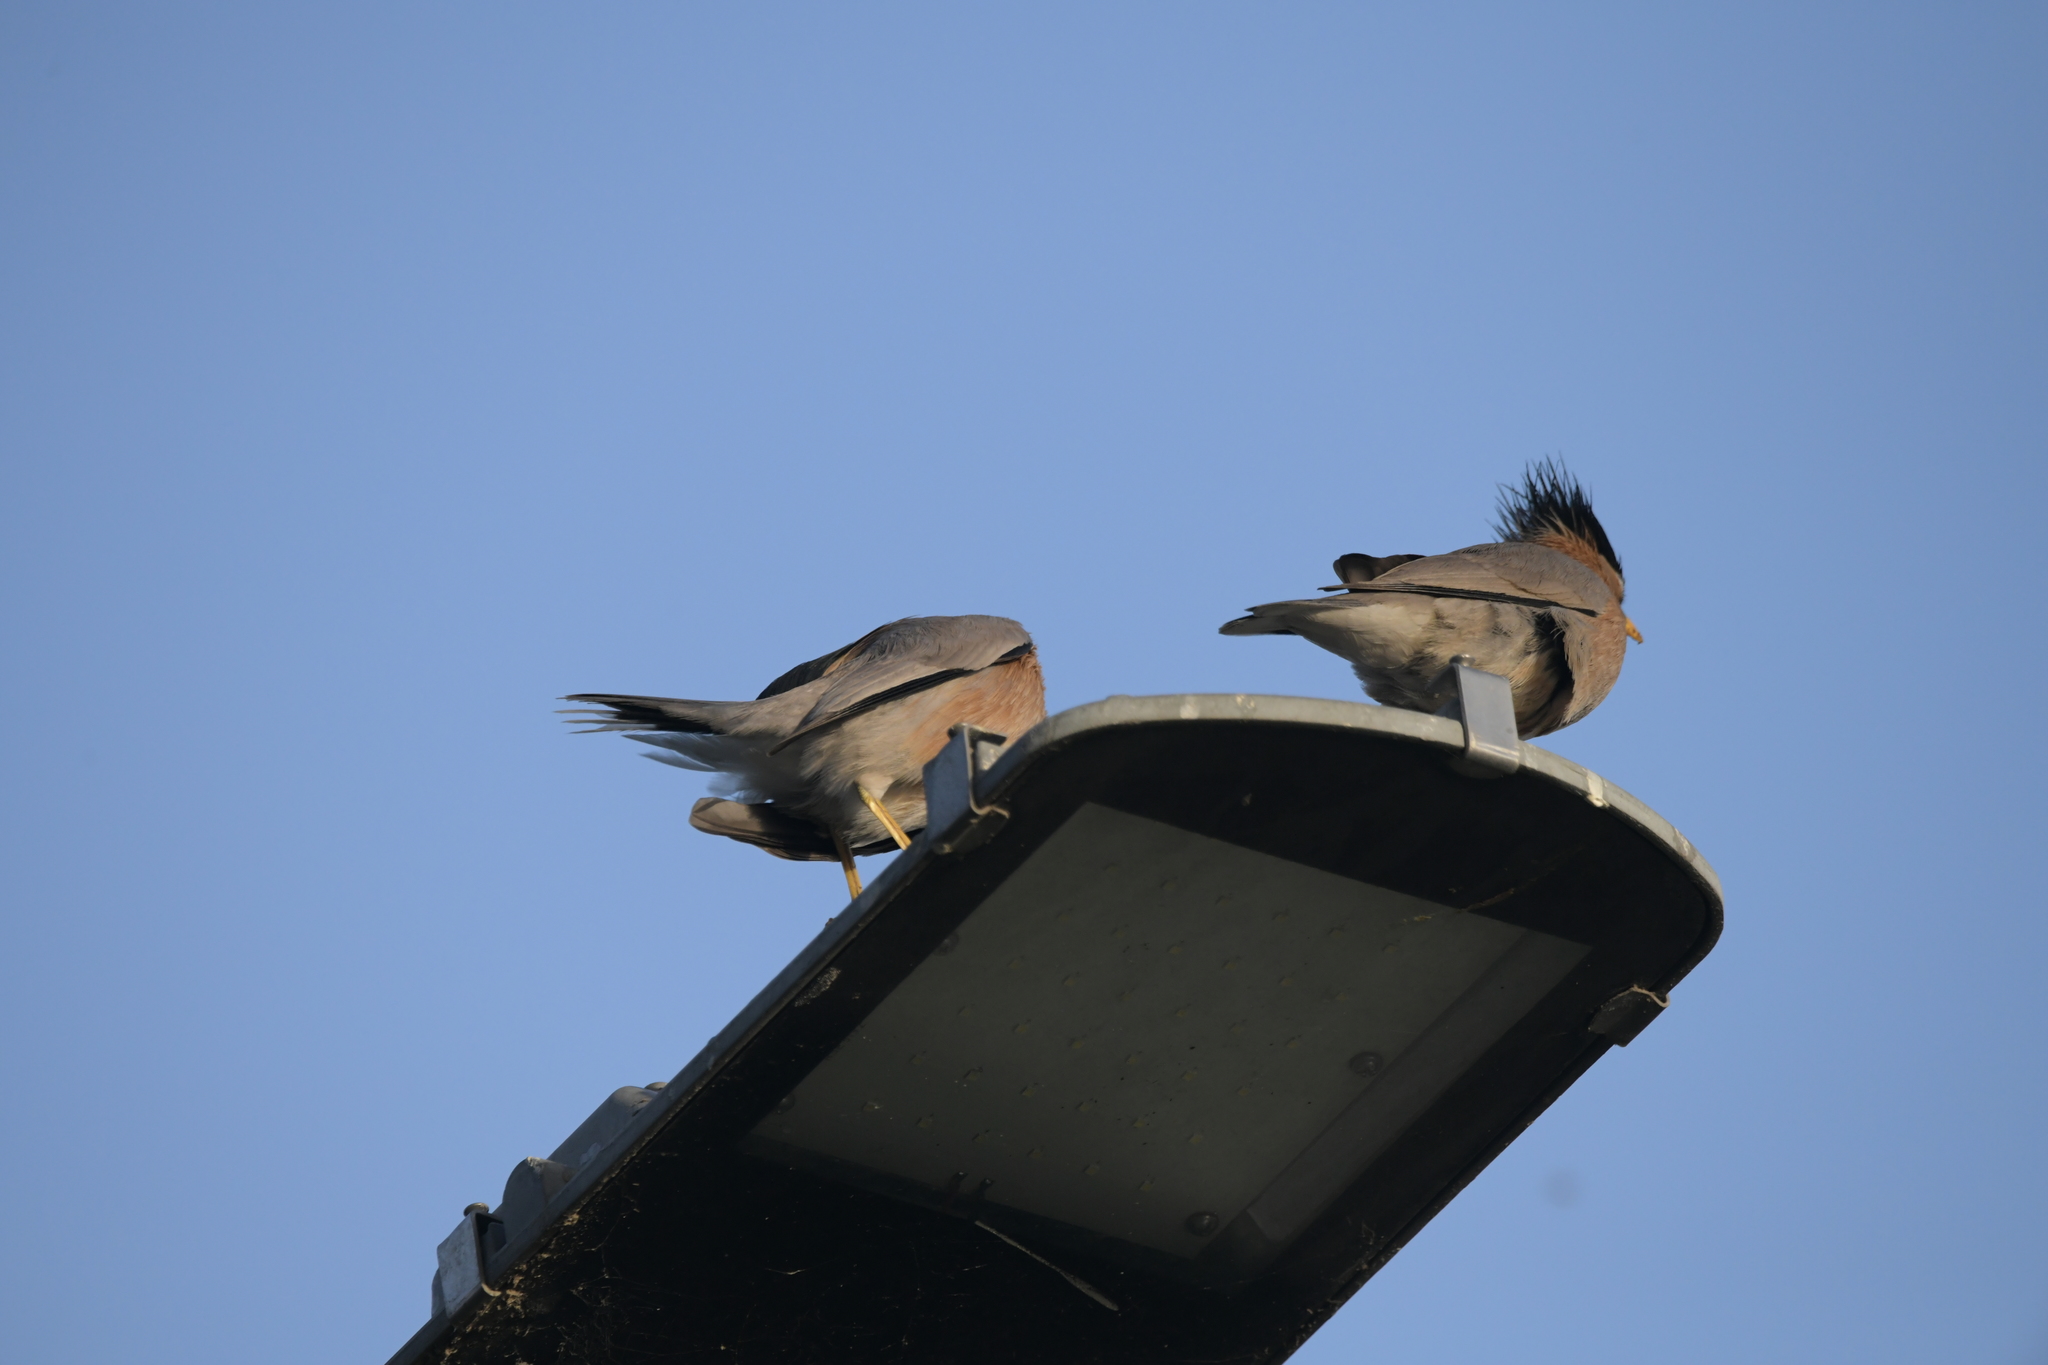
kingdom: Animalia
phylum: Chordata
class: Aves
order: Passeriformes
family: Sturnidae
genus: Sturnia
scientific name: Sturnia pagodarum
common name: Brahminy starling
